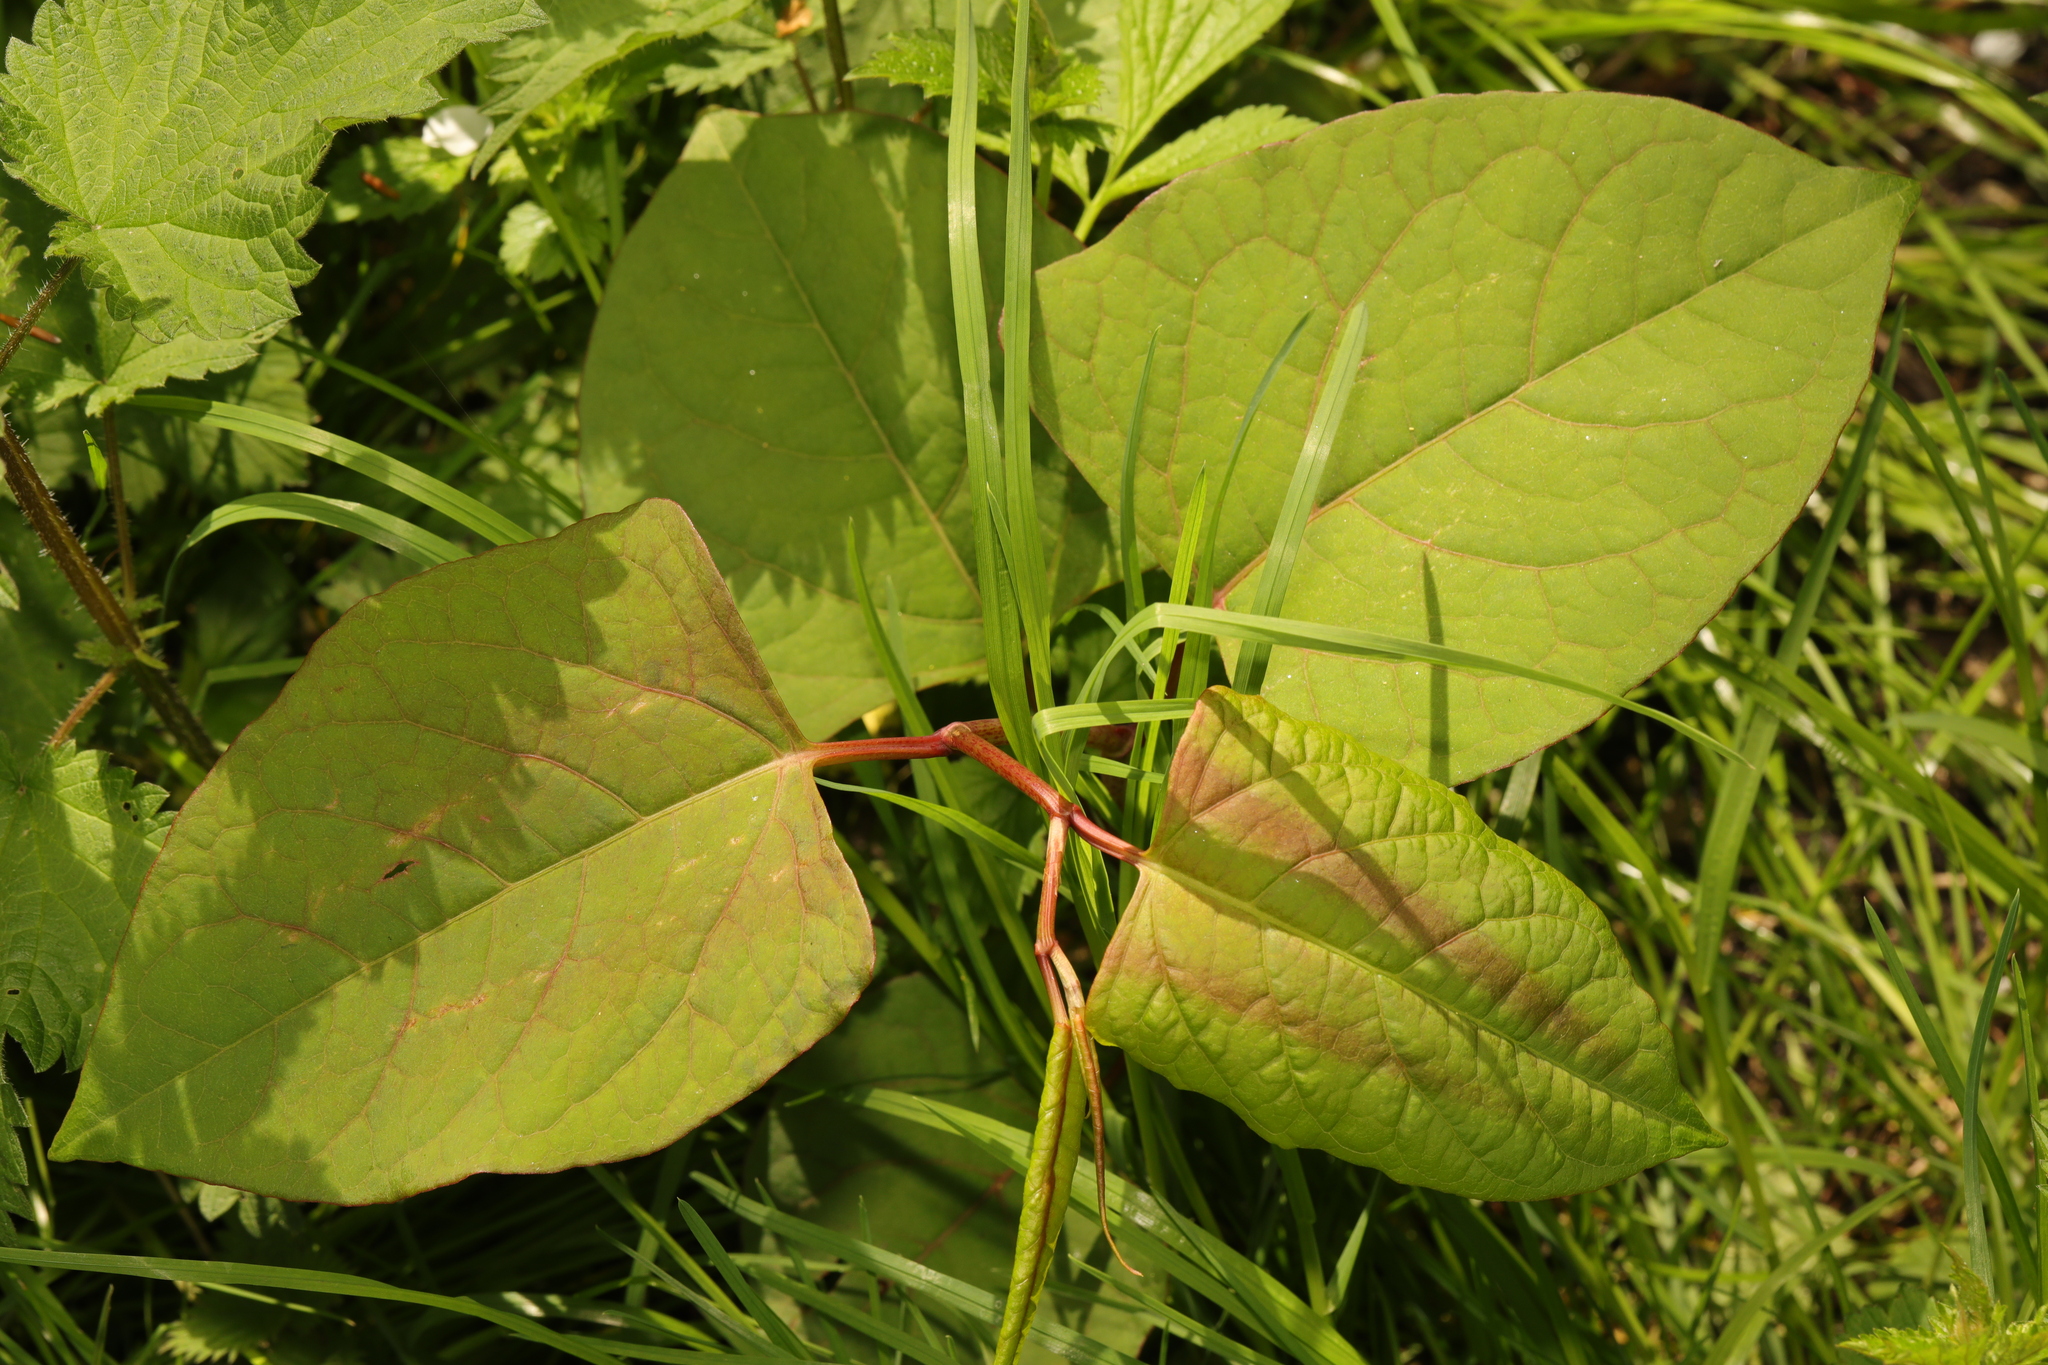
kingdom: Plantae
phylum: Tracheophyta
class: Magnoliopsida
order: Caryophyllales
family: Polygonaceae
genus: Reynoutria
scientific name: Reynoutria japonica
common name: Japanese knotweed
